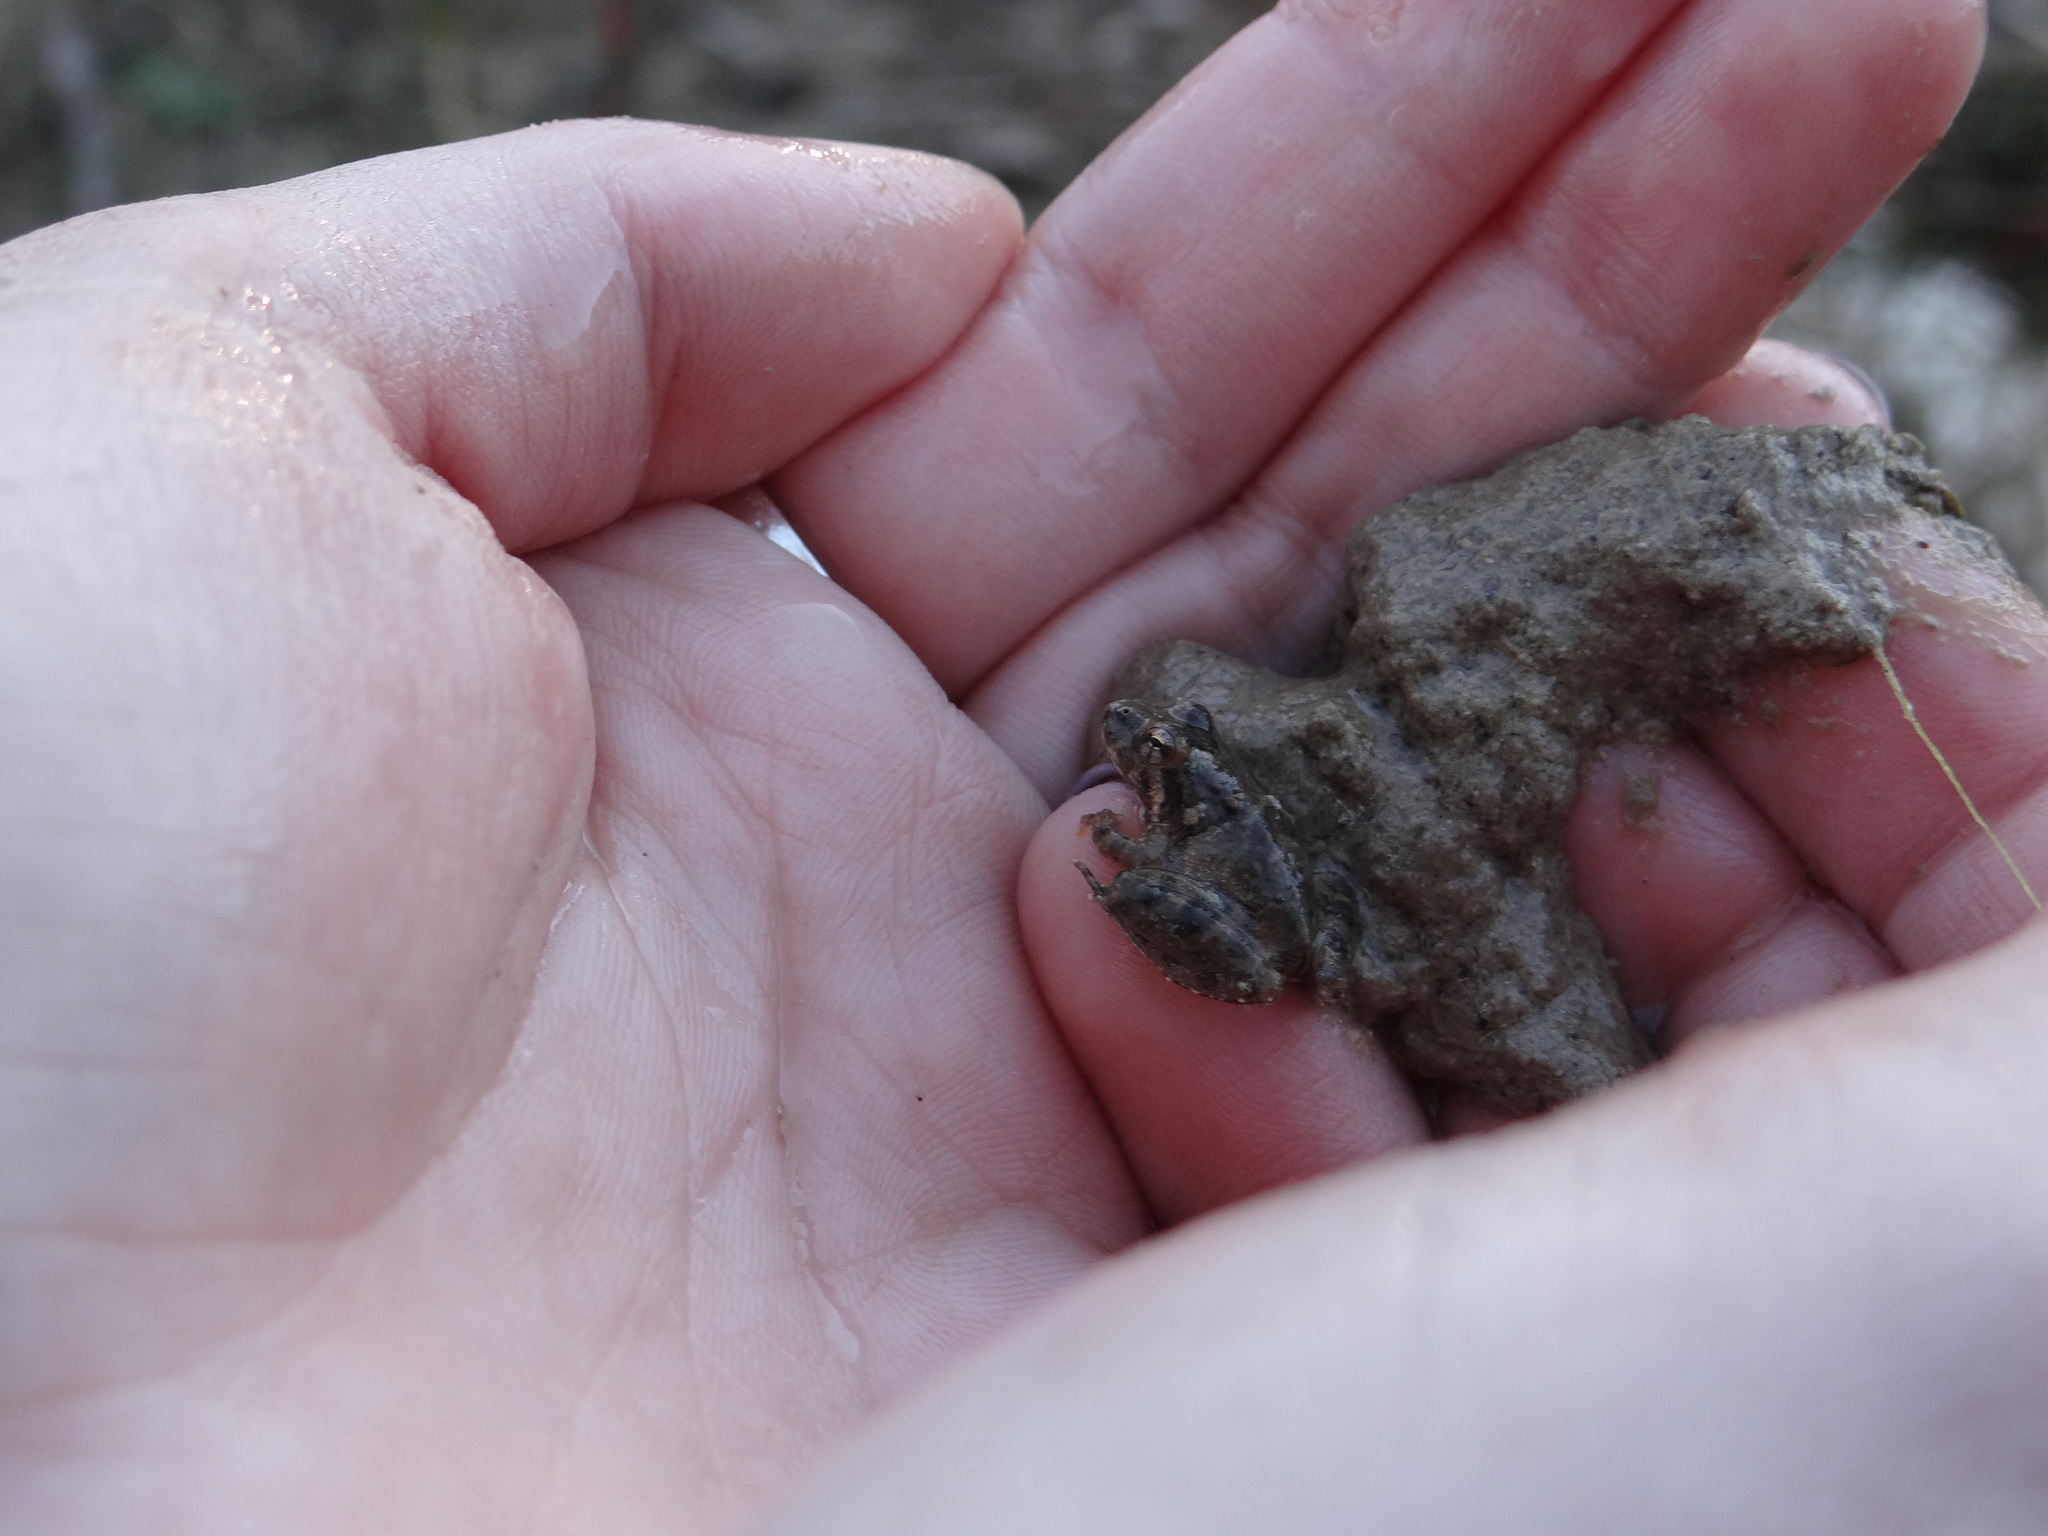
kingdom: Animalia
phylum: Chordata
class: Amphibia
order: Anura
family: Hylidae
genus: Acris
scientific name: Acris blanchardi
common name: Blanchard's cricket frog
